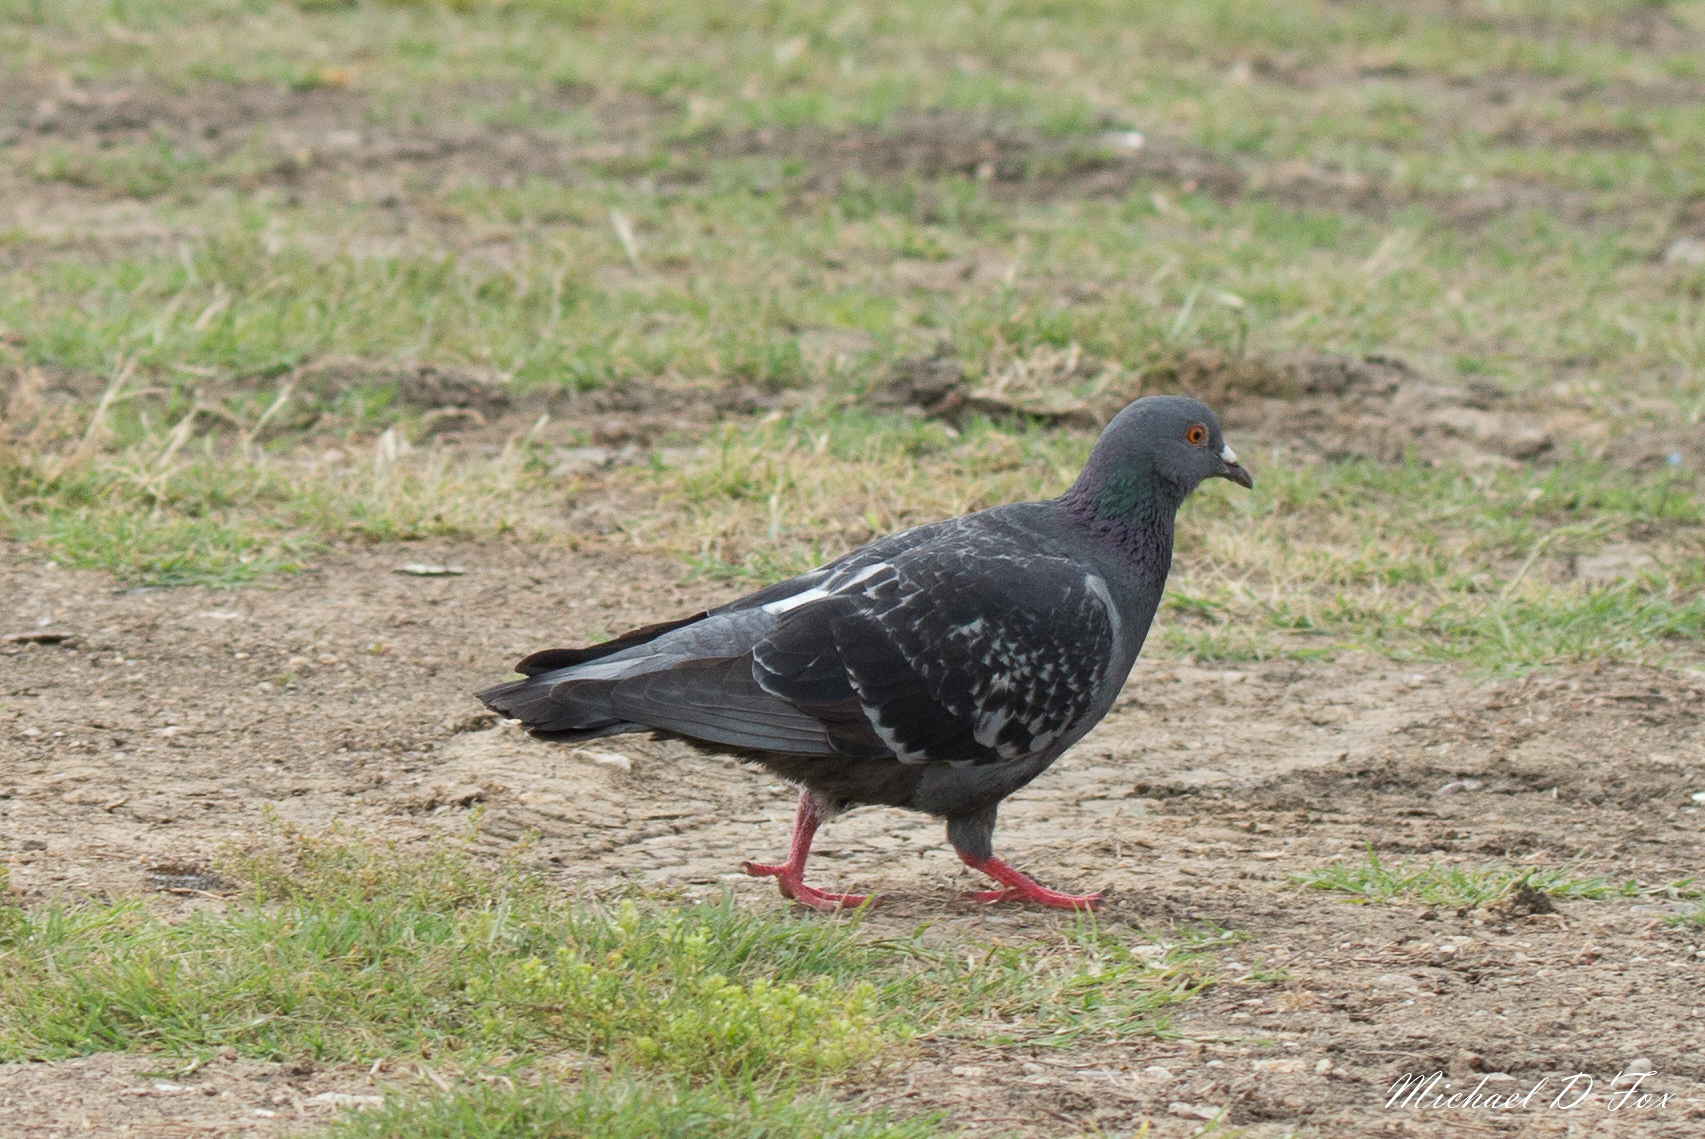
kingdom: Animalia
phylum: Chordata
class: Aves
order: Columbiformes
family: Columbidae
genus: Columba
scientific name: Columba livia
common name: Rock pigeon
